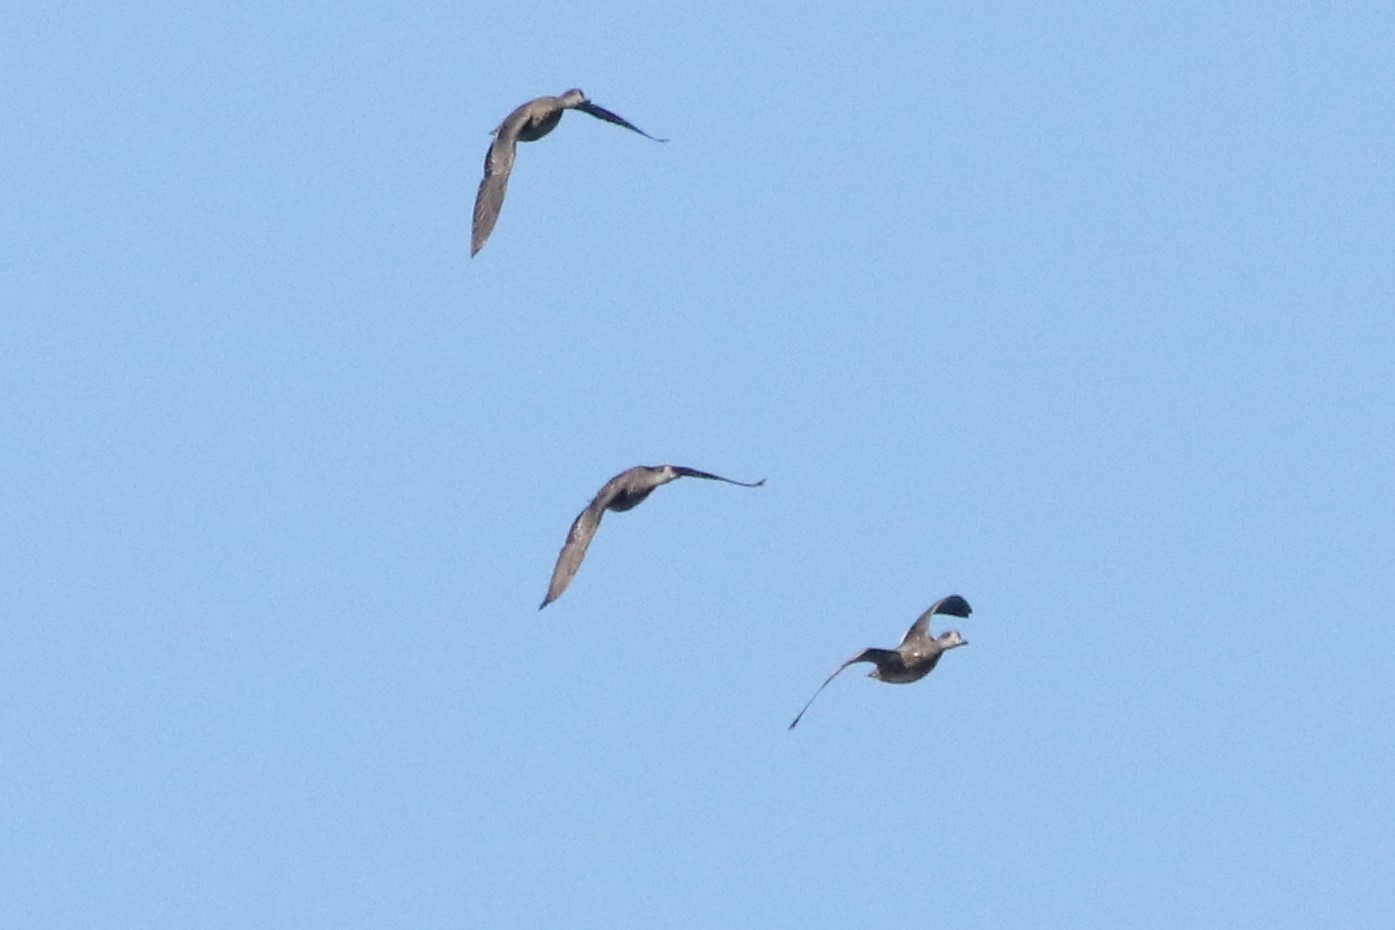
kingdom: Animalia
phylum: Chordata
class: Aves
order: Anseriformes
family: Anatidae
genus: Mareca
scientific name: Mareca americana
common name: American wigeon
